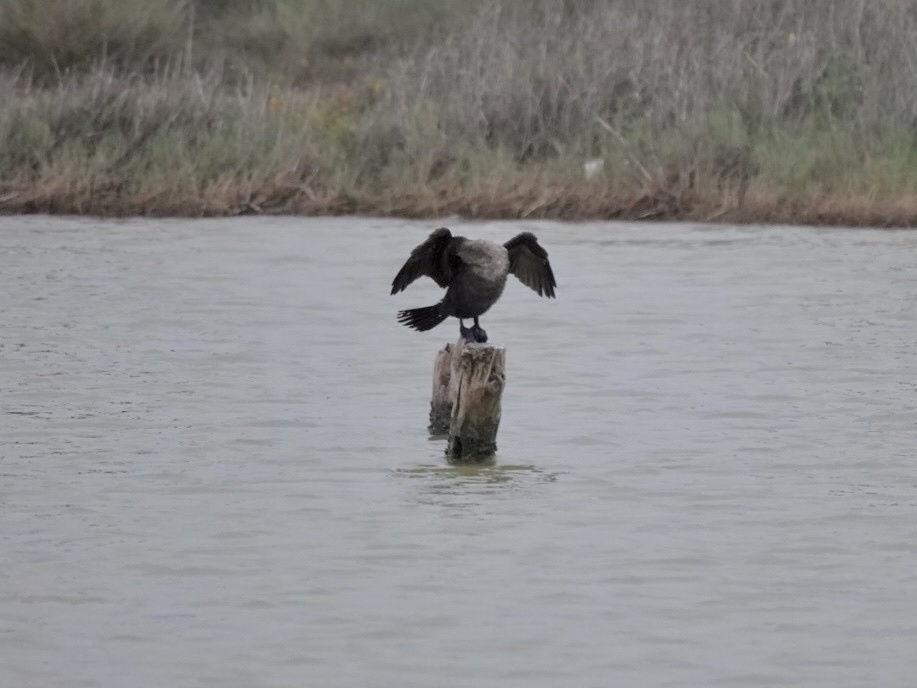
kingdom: Animalia
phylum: Chordata
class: Aves
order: Suliformes
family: Phalacrocoracidae
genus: Phalacrocorax
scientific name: Phalacrocorax auritus
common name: Double-crested cormorant
